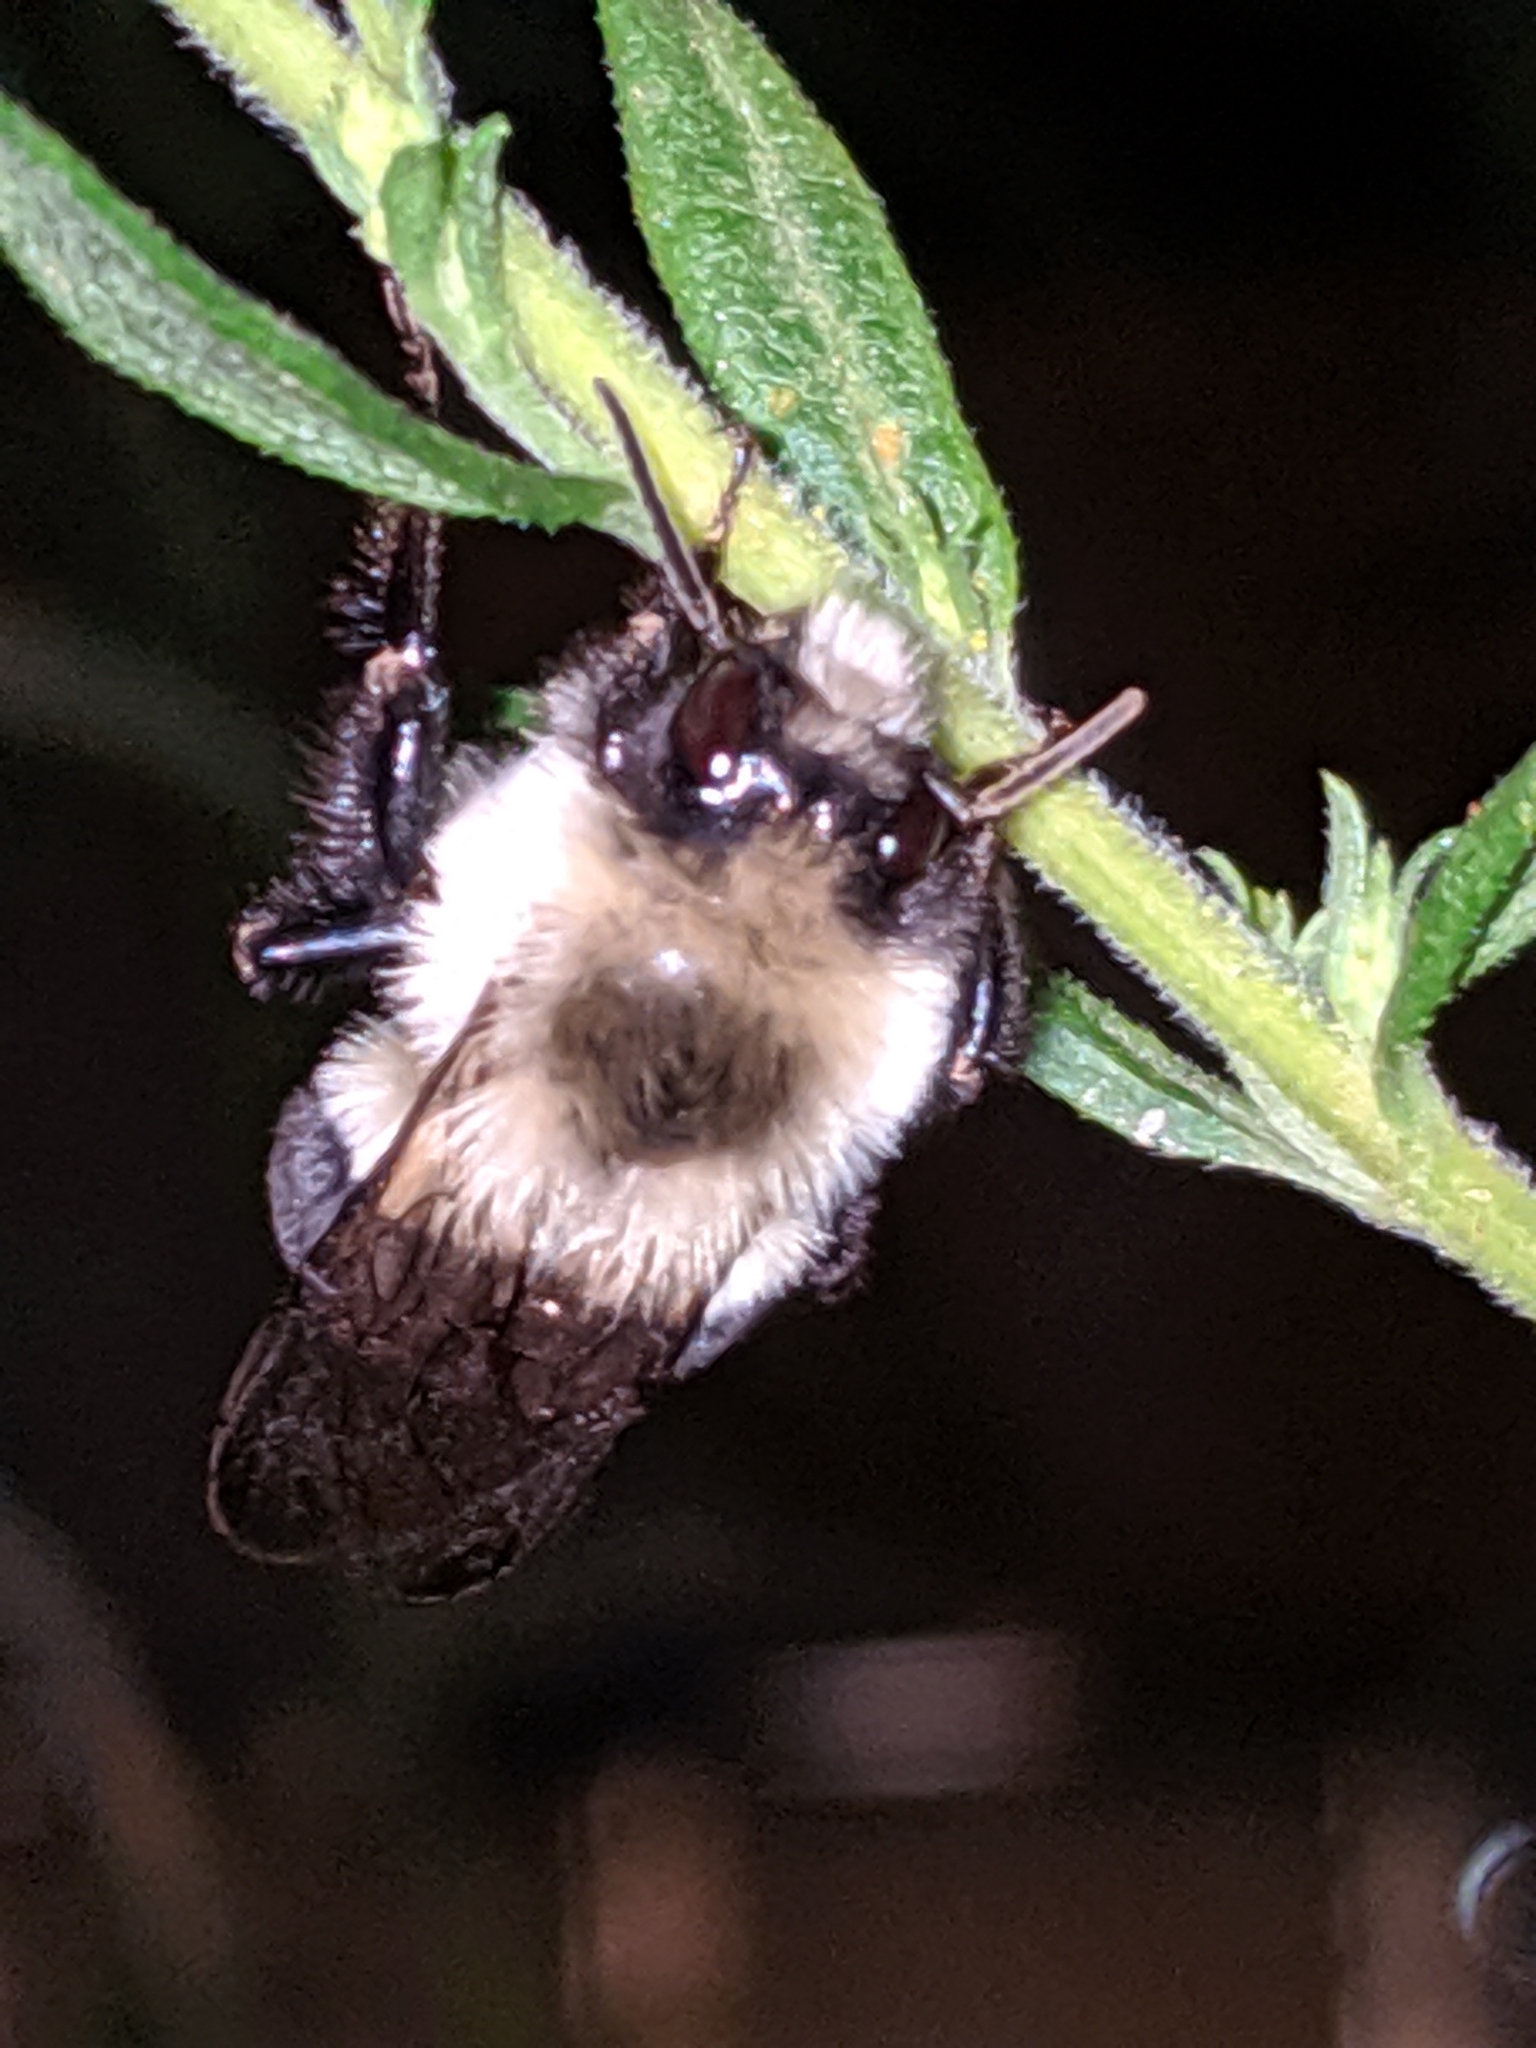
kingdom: Animalia
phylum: Arthropoda
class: Insecta
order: Hymenoptera
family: Apidae
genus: Bombus
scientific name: Bombus impatiens
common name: Common eastern bumble bee
